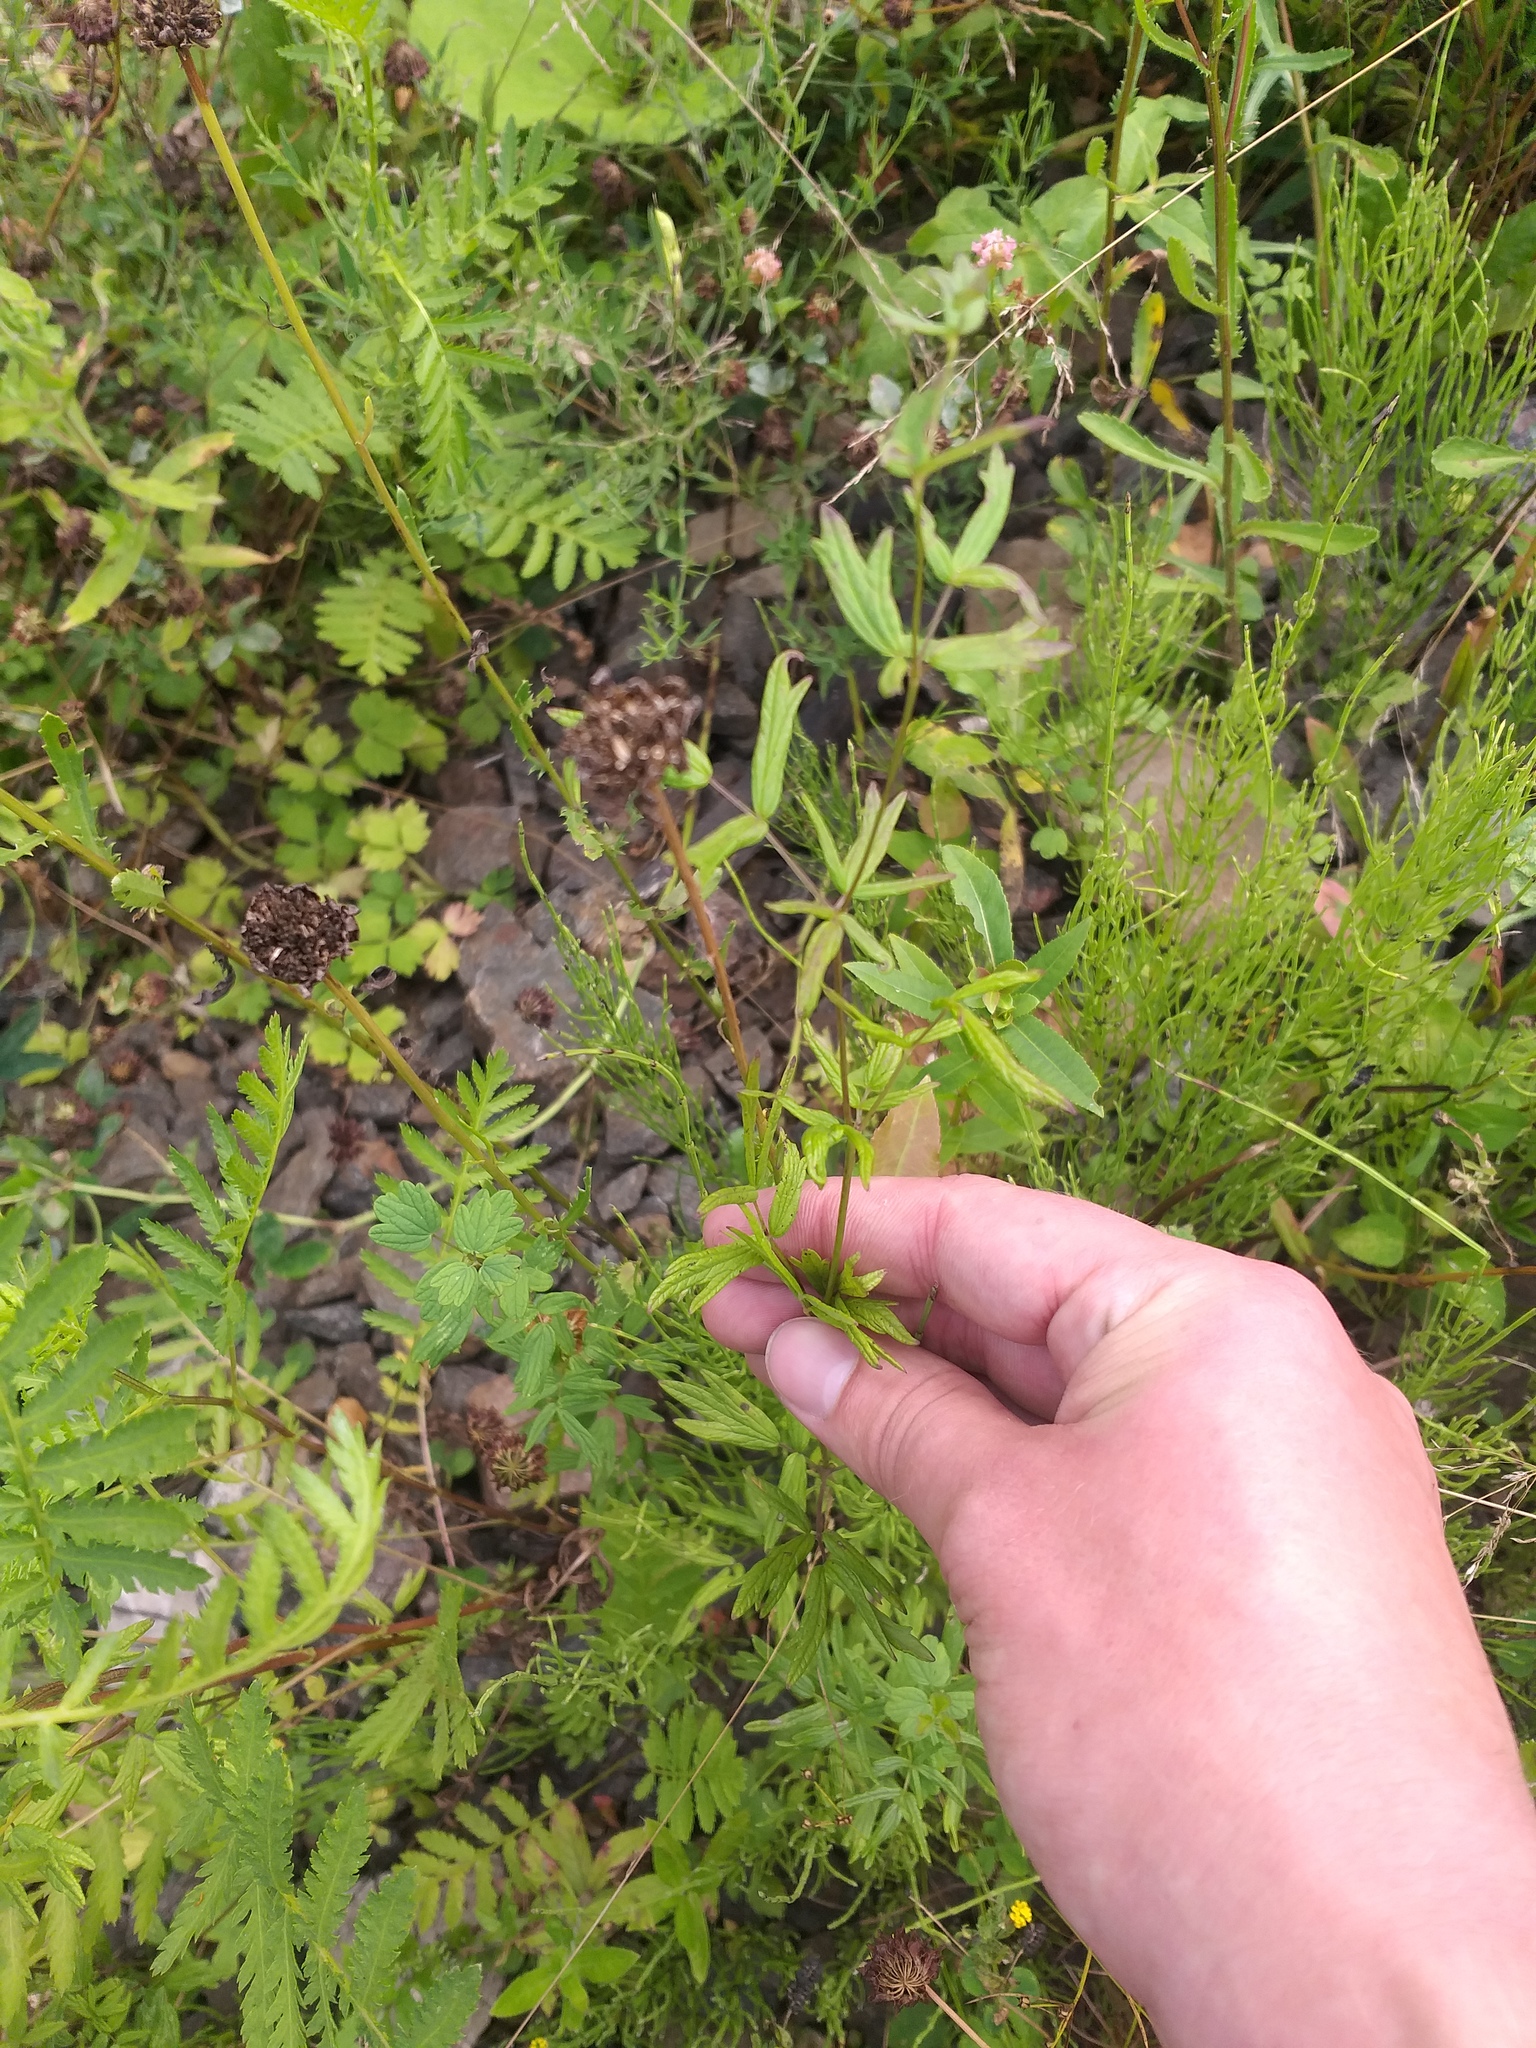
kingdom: Plantae
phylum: Tracheophyta
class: Magnoliopsida
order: Ranunculales
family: Ranunculaceae
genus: Thalictrum
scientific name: Thalictrum lucidum
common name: Shining meadow-rue
